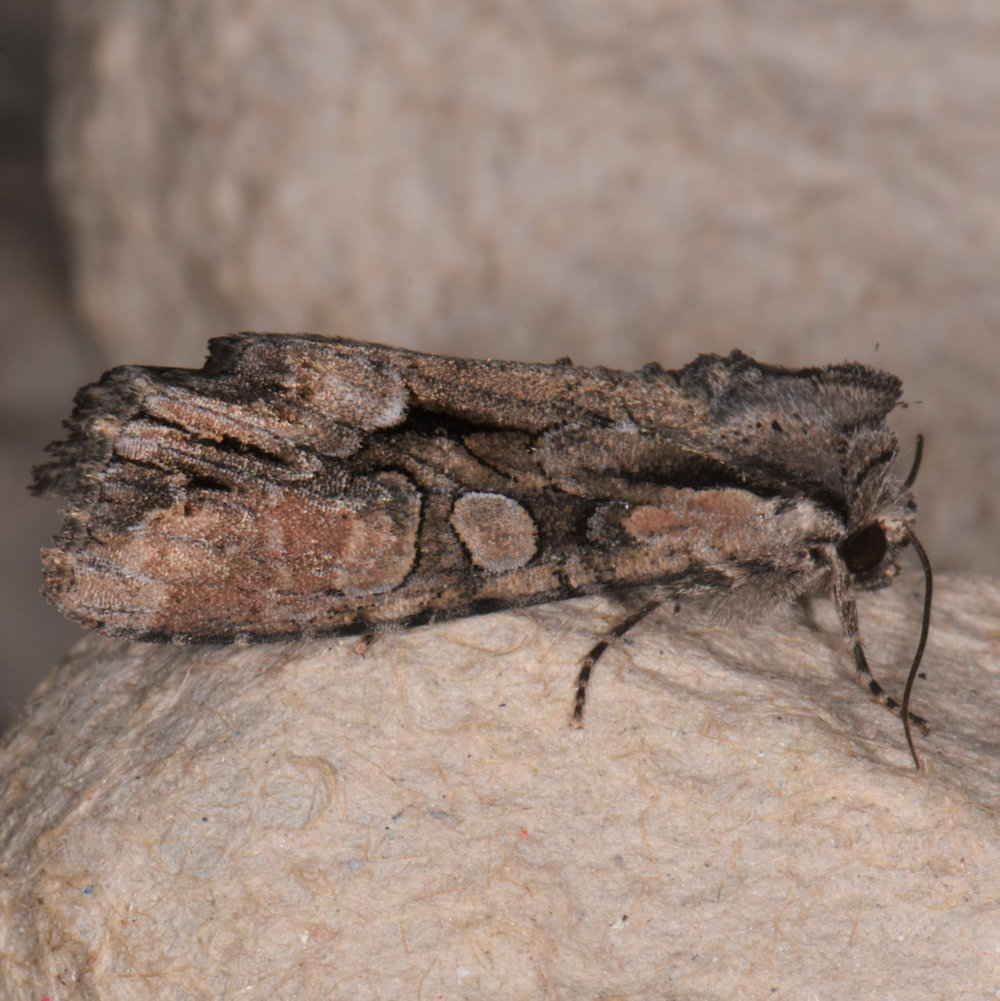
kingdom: Animalia
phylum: Arthropoda
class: Insecta
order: Lepidoptera
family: Noctuidae
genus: Lacanobia
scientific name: Lacanobia subjuncta
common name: Speckled cutworm moth
